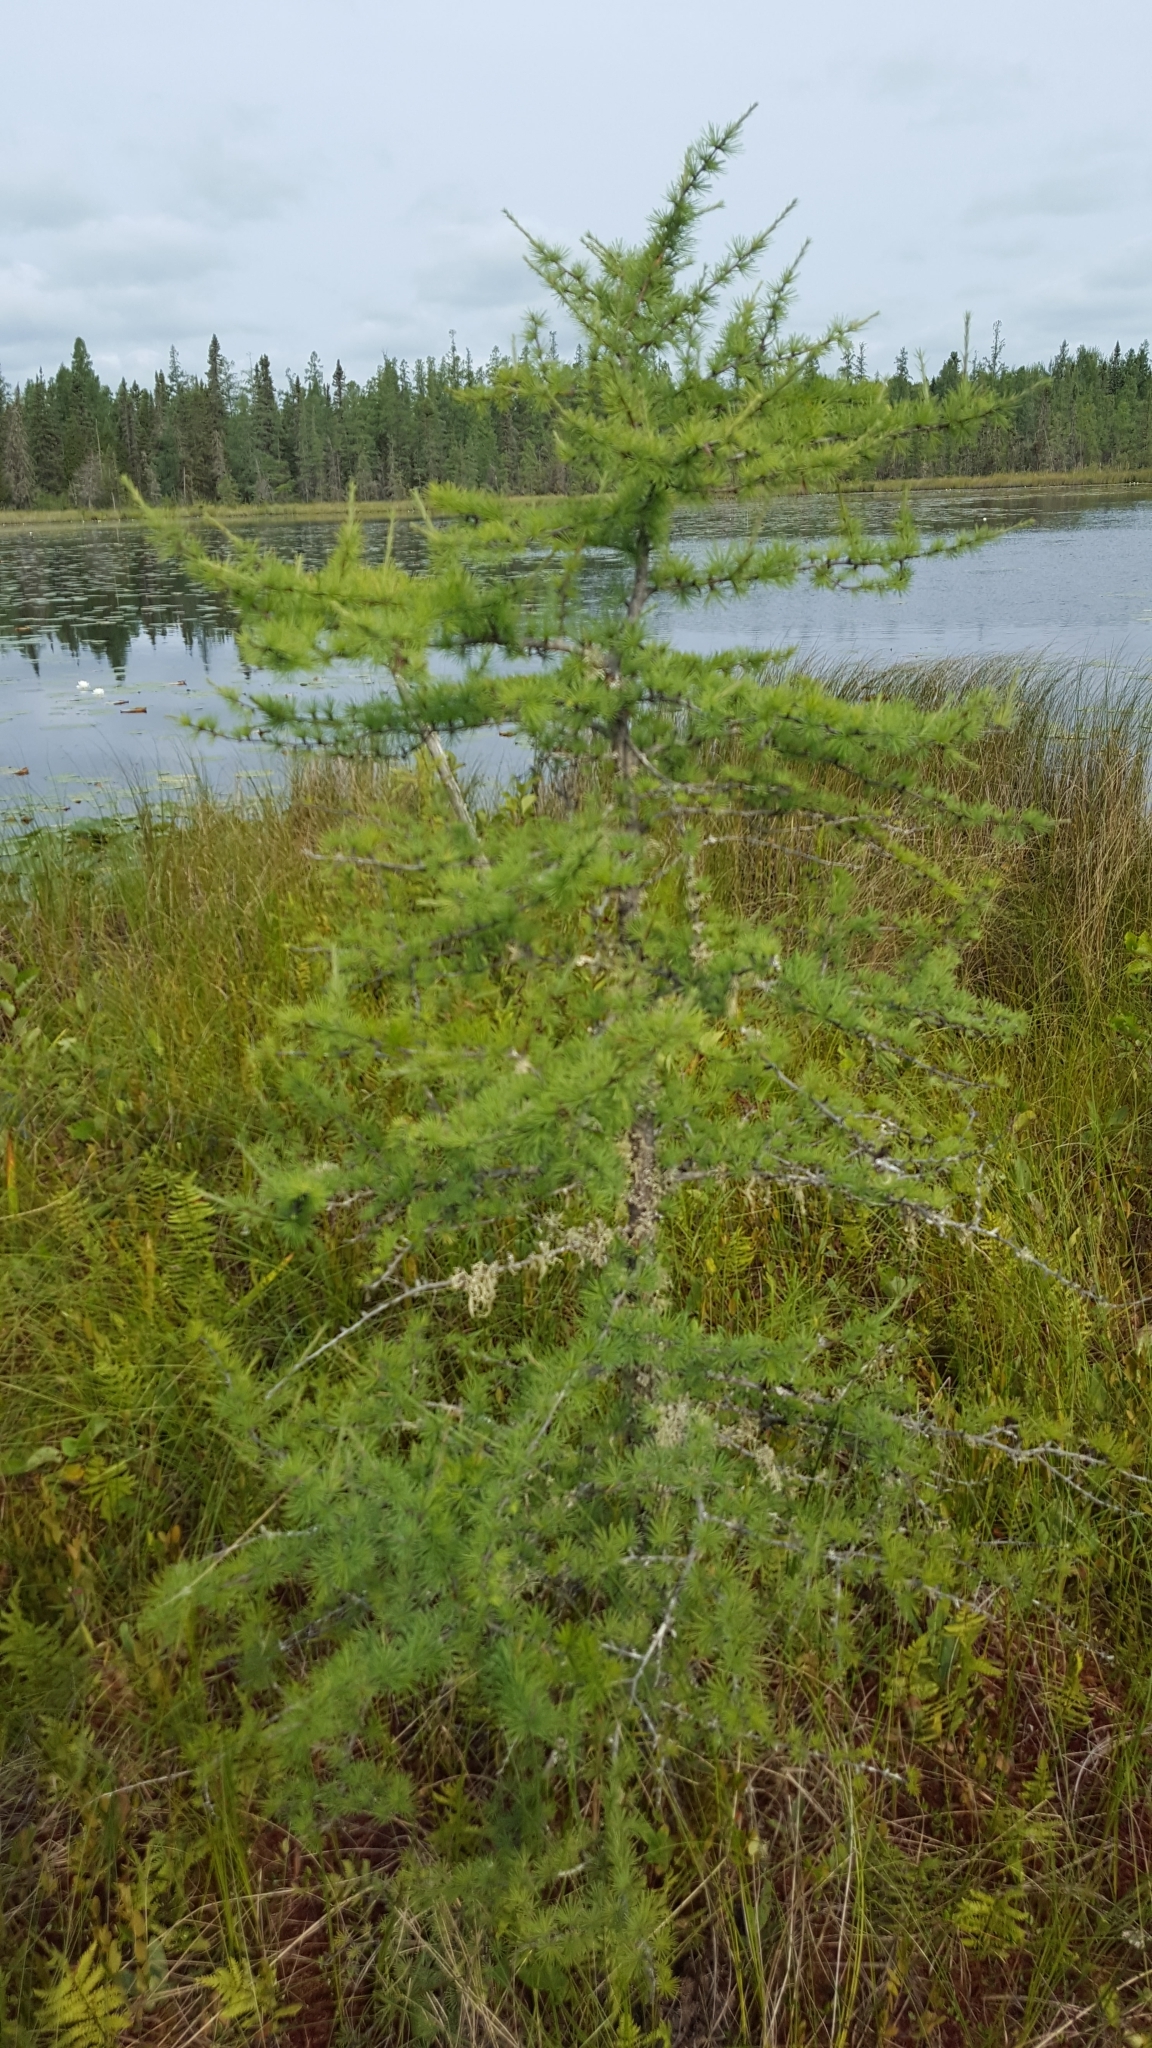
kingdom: Plantae
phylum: Tracheophyta
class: Pinopsida
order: Pinales
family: Pinaceae
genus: Larix
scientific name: Larix laricina
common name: American larch
